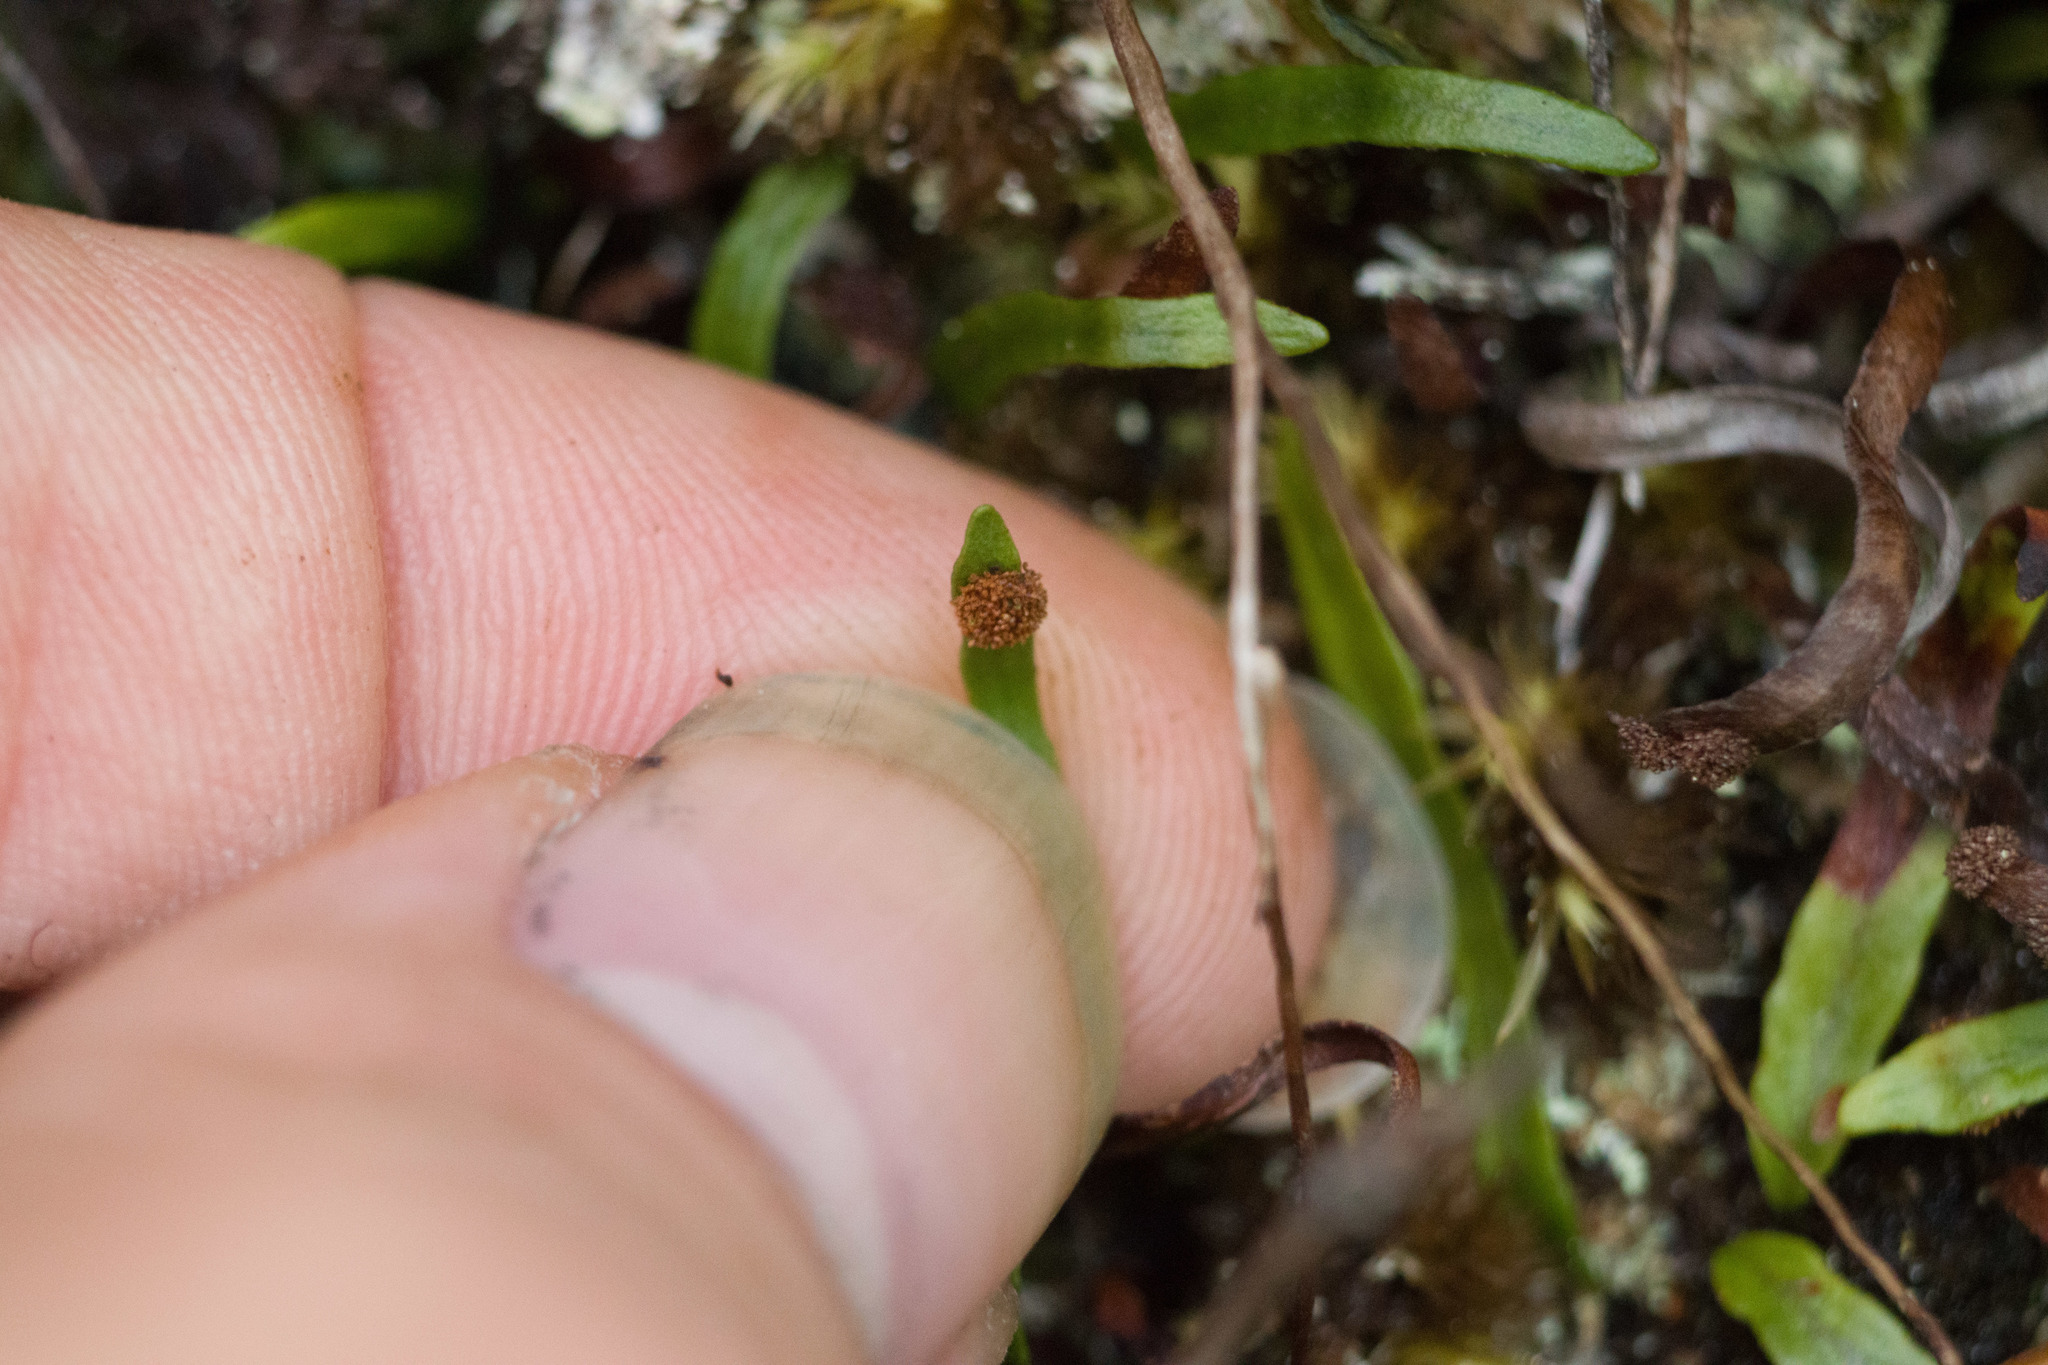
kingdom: Plantae
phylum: Tracheophyta
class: Polypodiopsida
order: Polypodiales
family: Polypodiaceae
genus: Adenophorus
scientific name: Adenophorus tenellus
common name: Kolokolo
